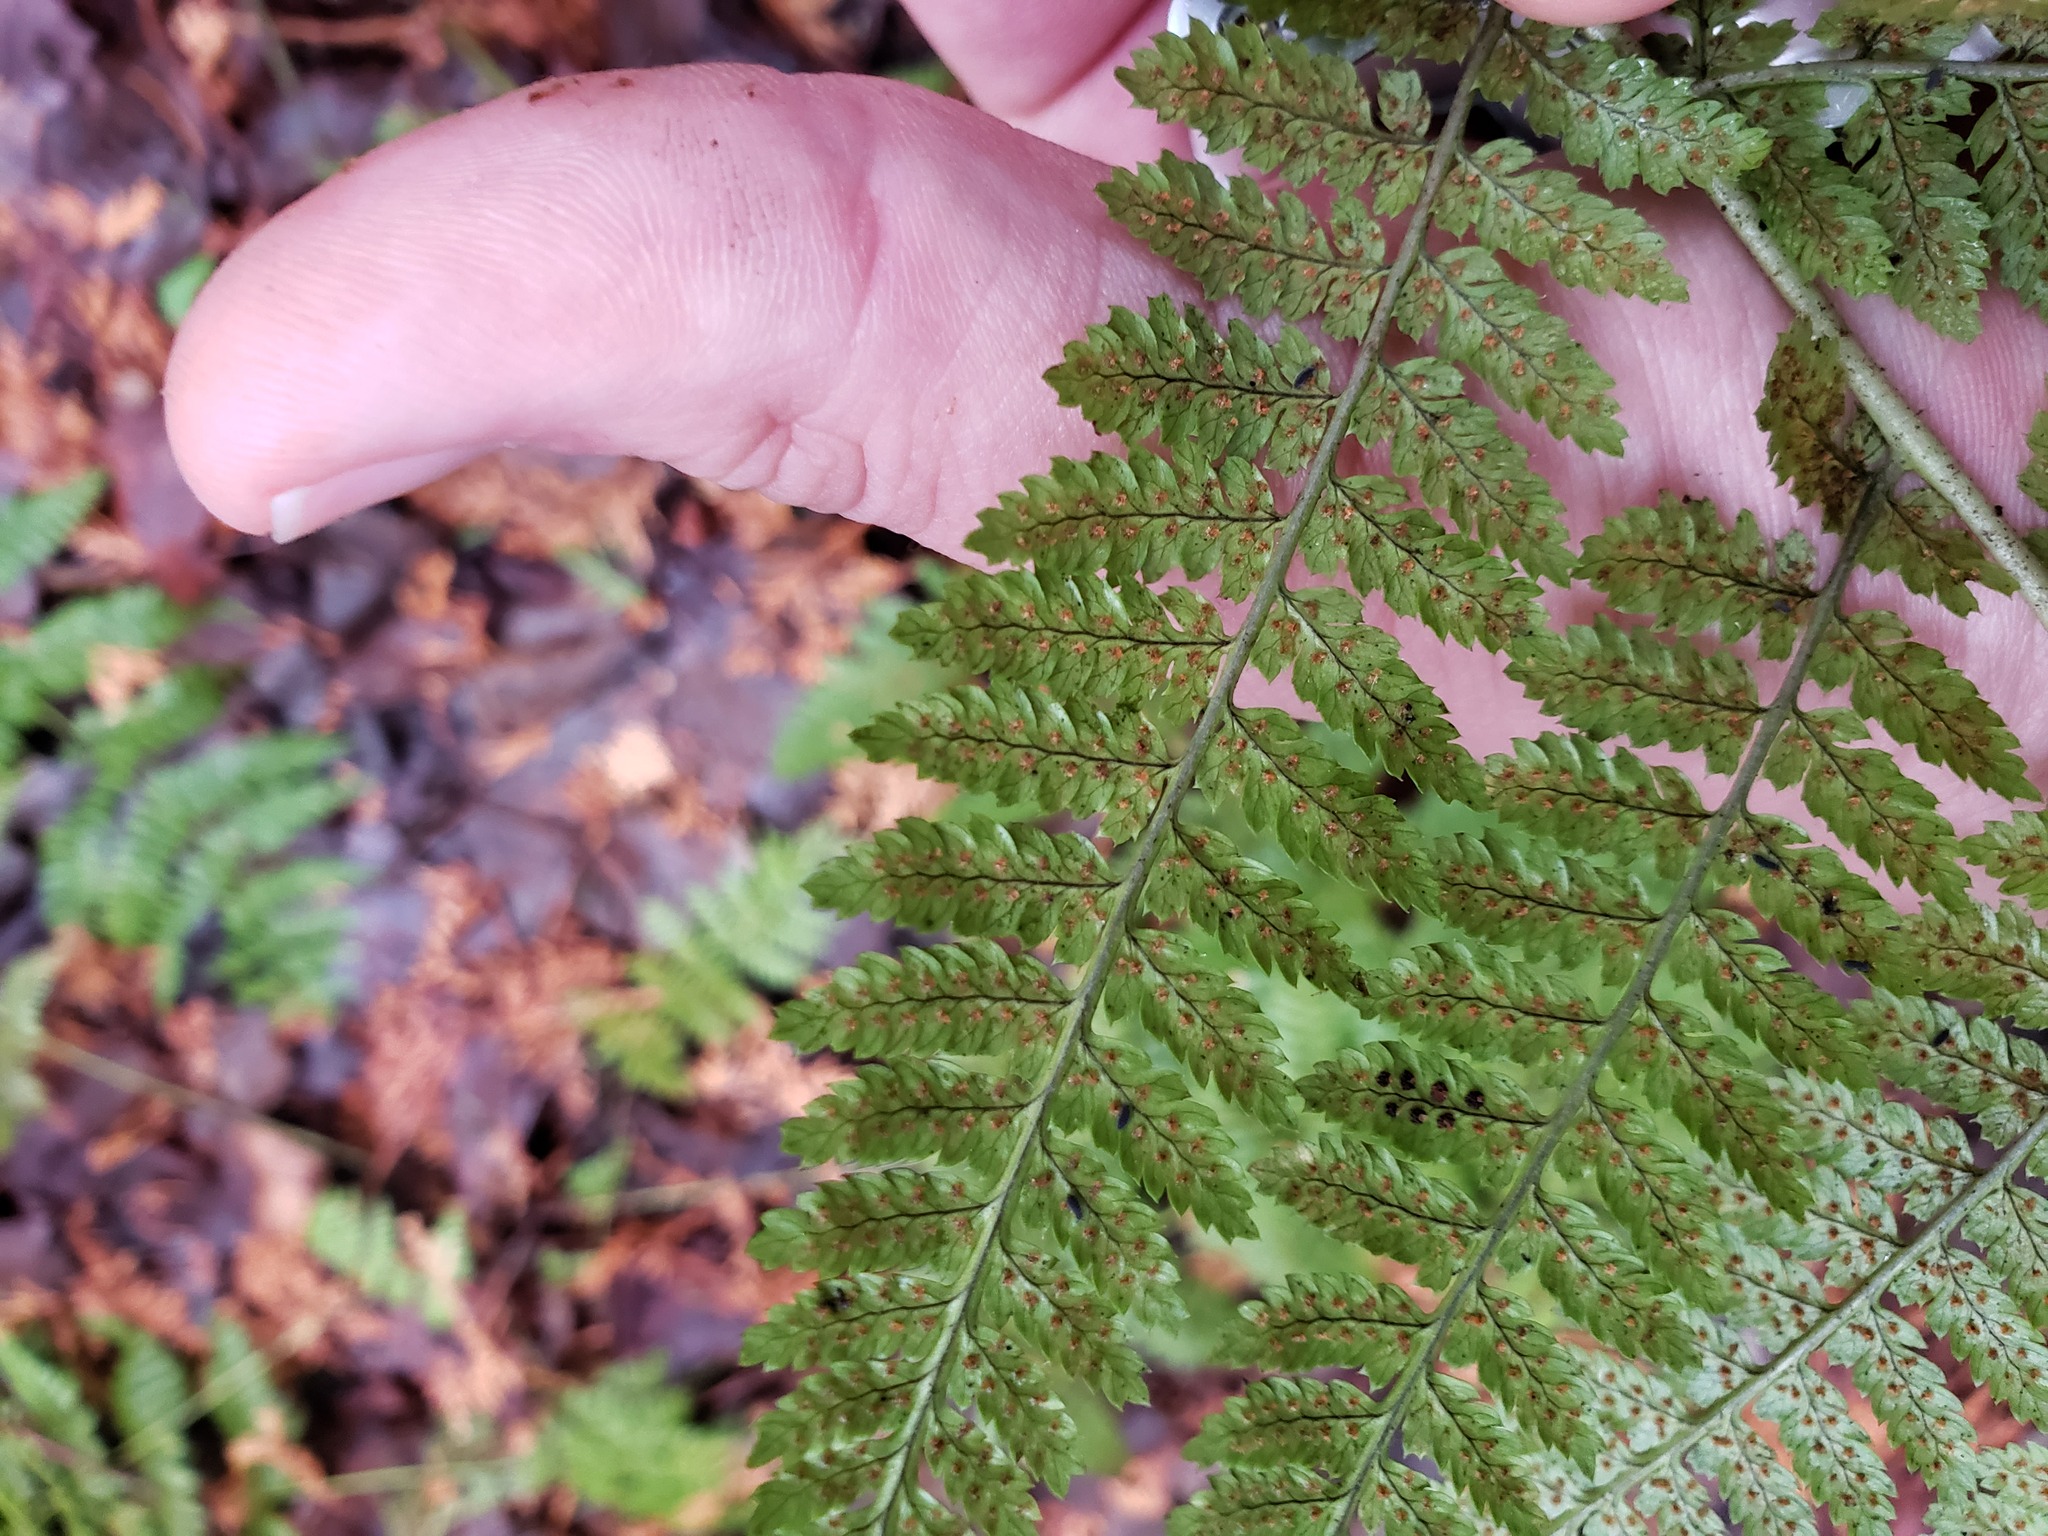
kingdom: Plantae
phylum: Tracheophyta
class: Polypodiopsida
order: Polypodiales
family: Dryopteridaceae
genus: Dryopteris
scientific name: Dryopteris intermedia
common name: Evergreen wood fern
